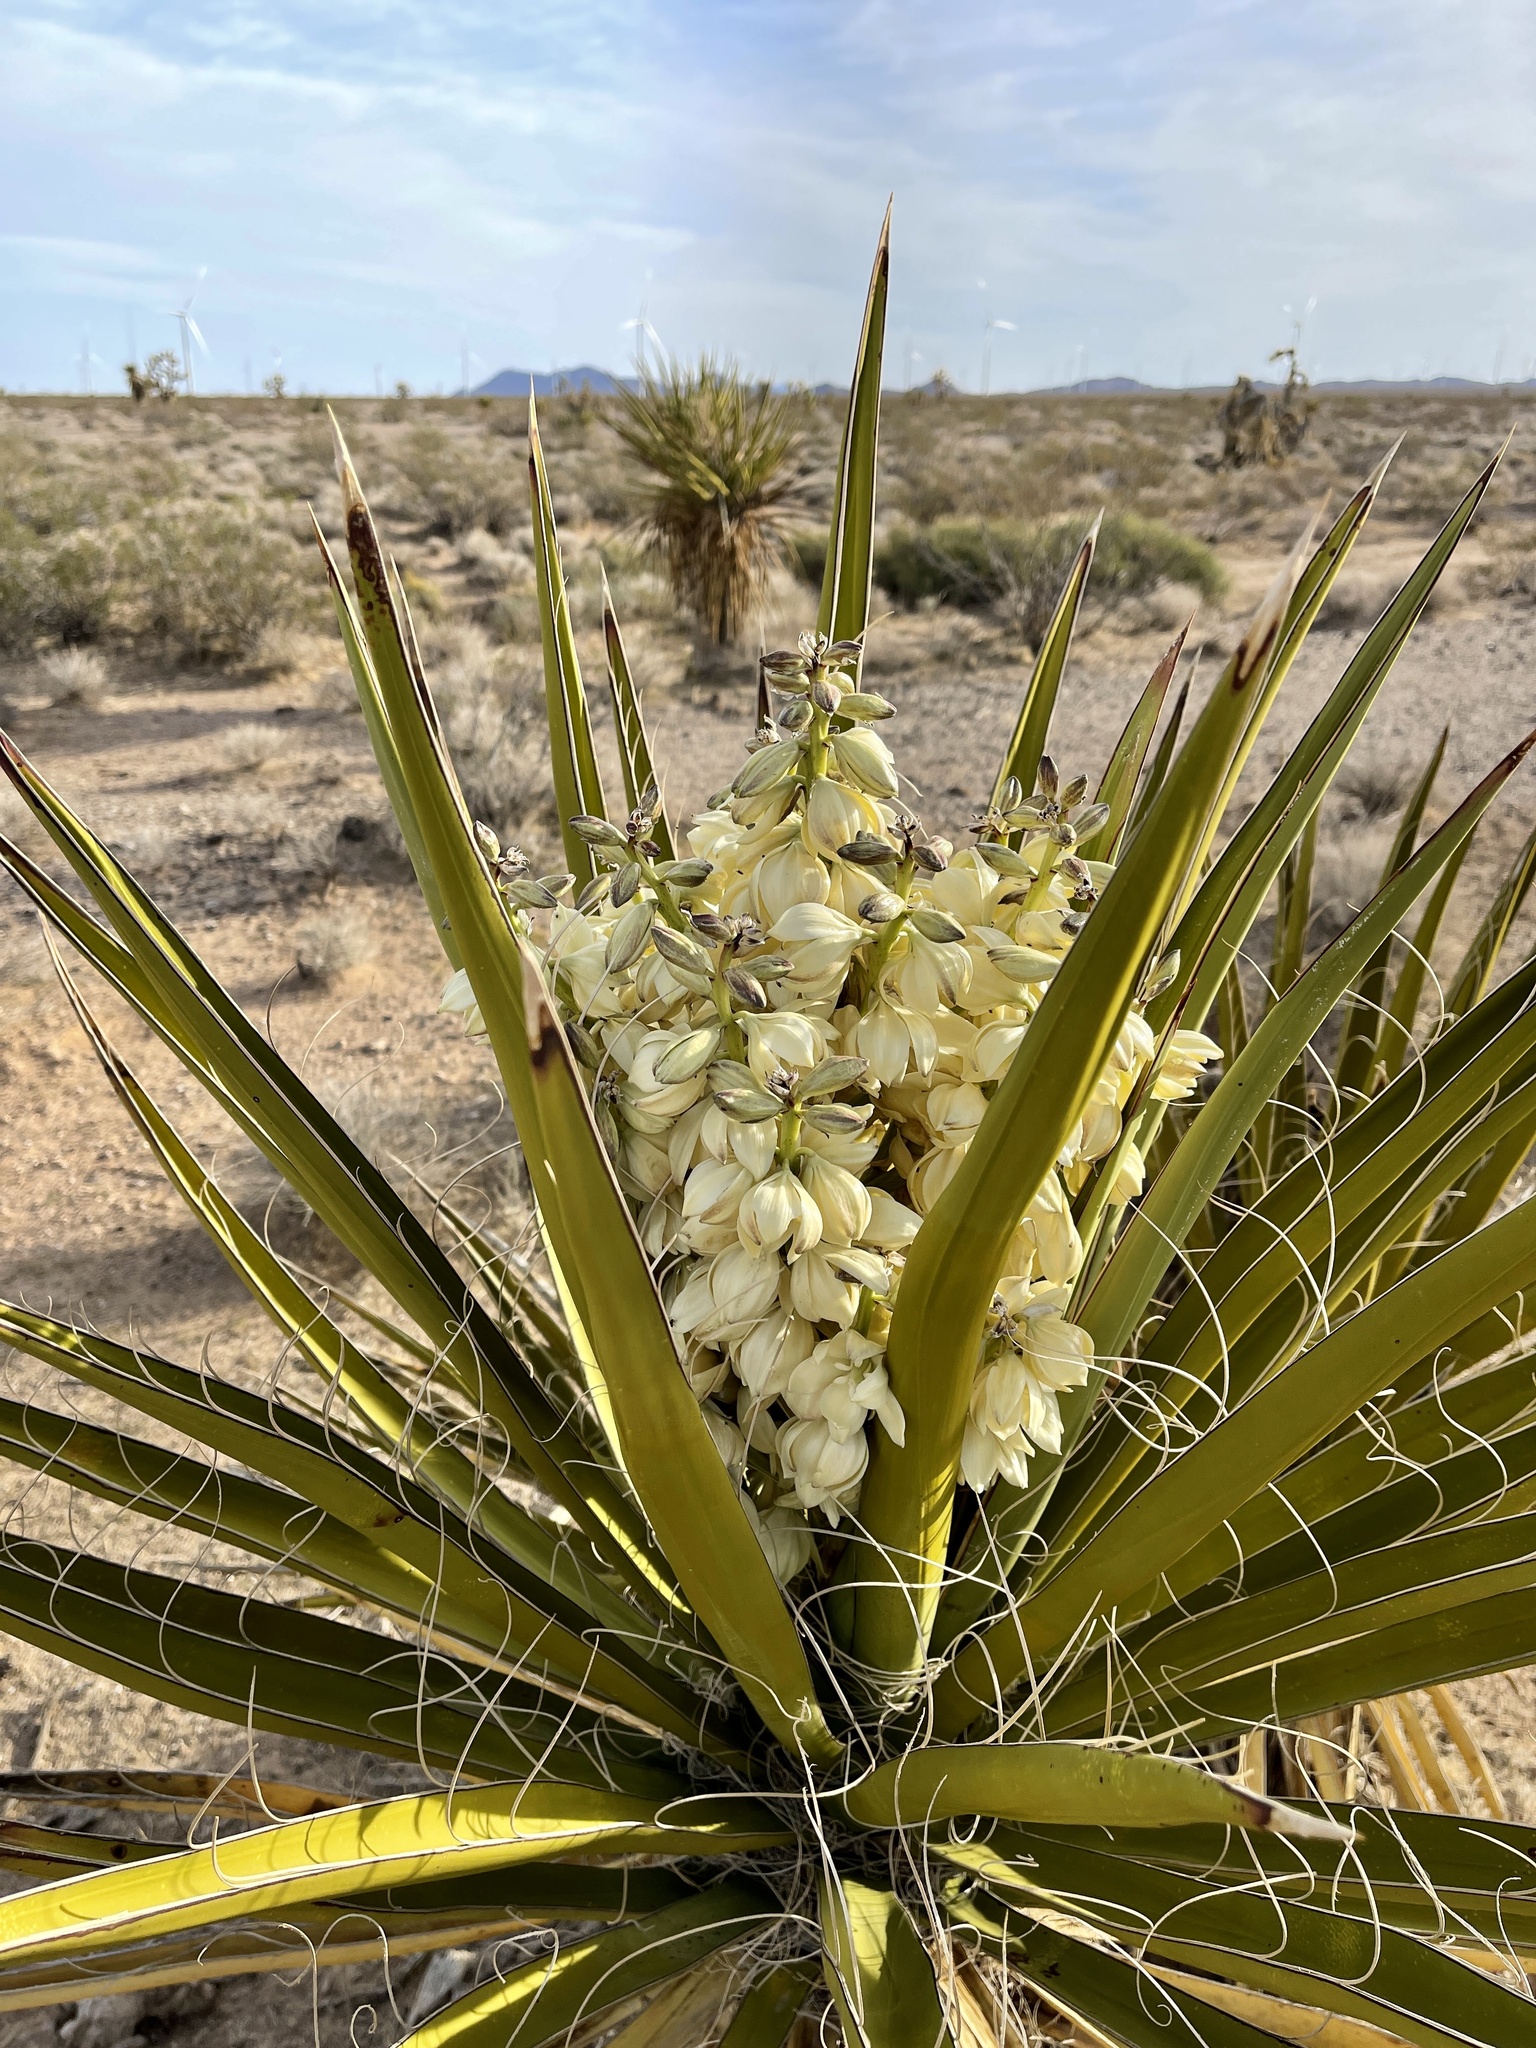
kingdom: Plantae
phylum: Tracheophyta
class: Liliopsida
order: Asparagales
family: Asparagaceae
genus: Yucca
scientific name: Yucca schidigera
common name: Mojave yucca
